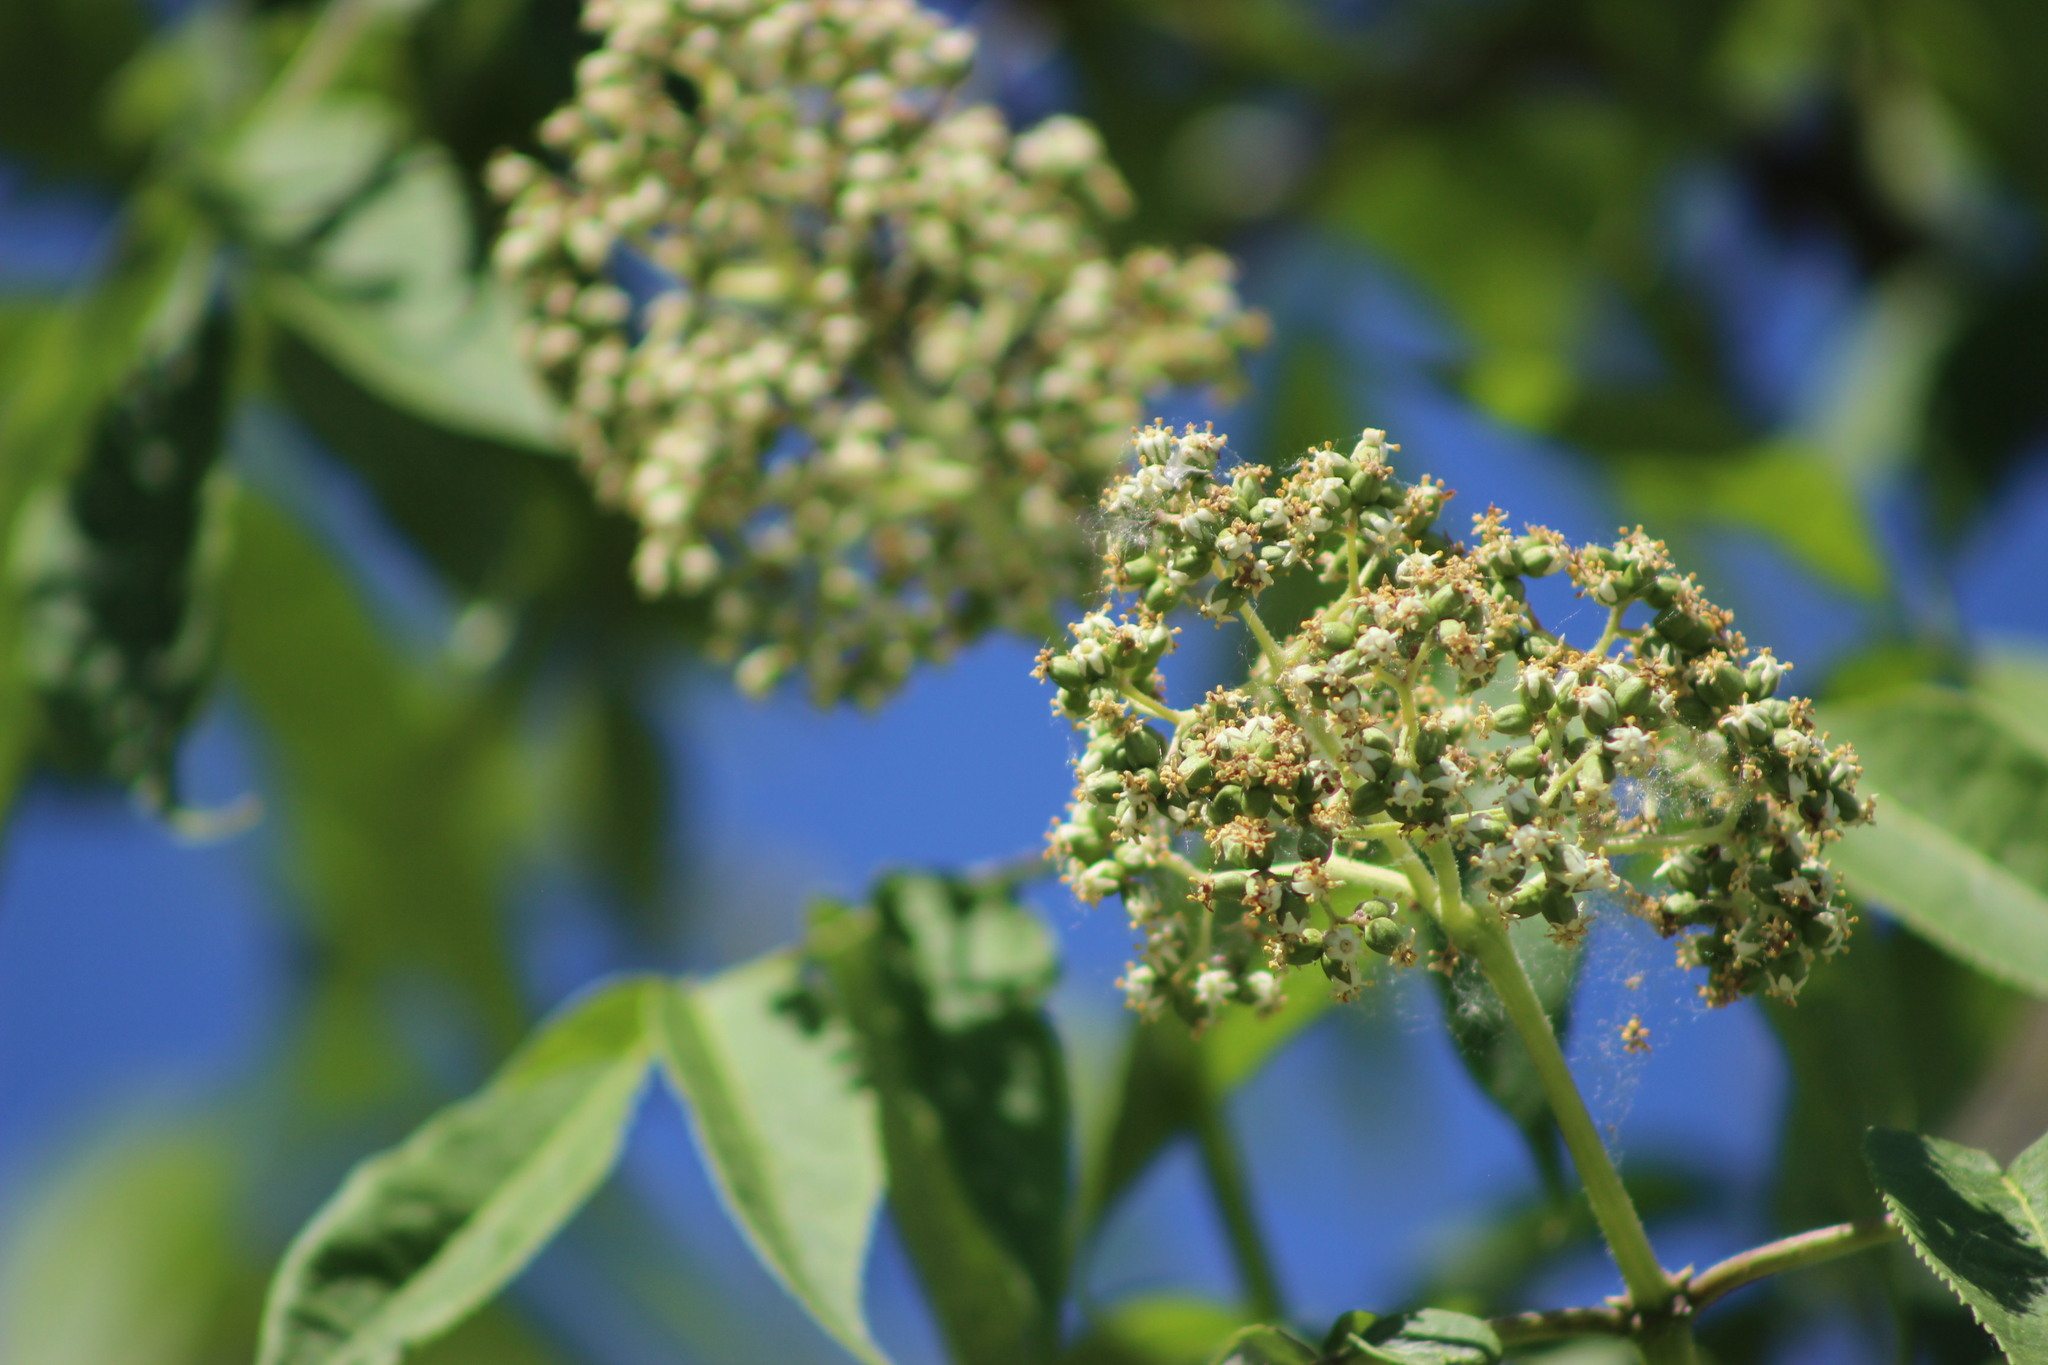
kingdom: Plantae
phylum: Tracheophyta
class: Magnoliopsida
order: Dipsacales
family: Viburnaceae
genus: Sambucus
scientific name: Sambucus sibirica
